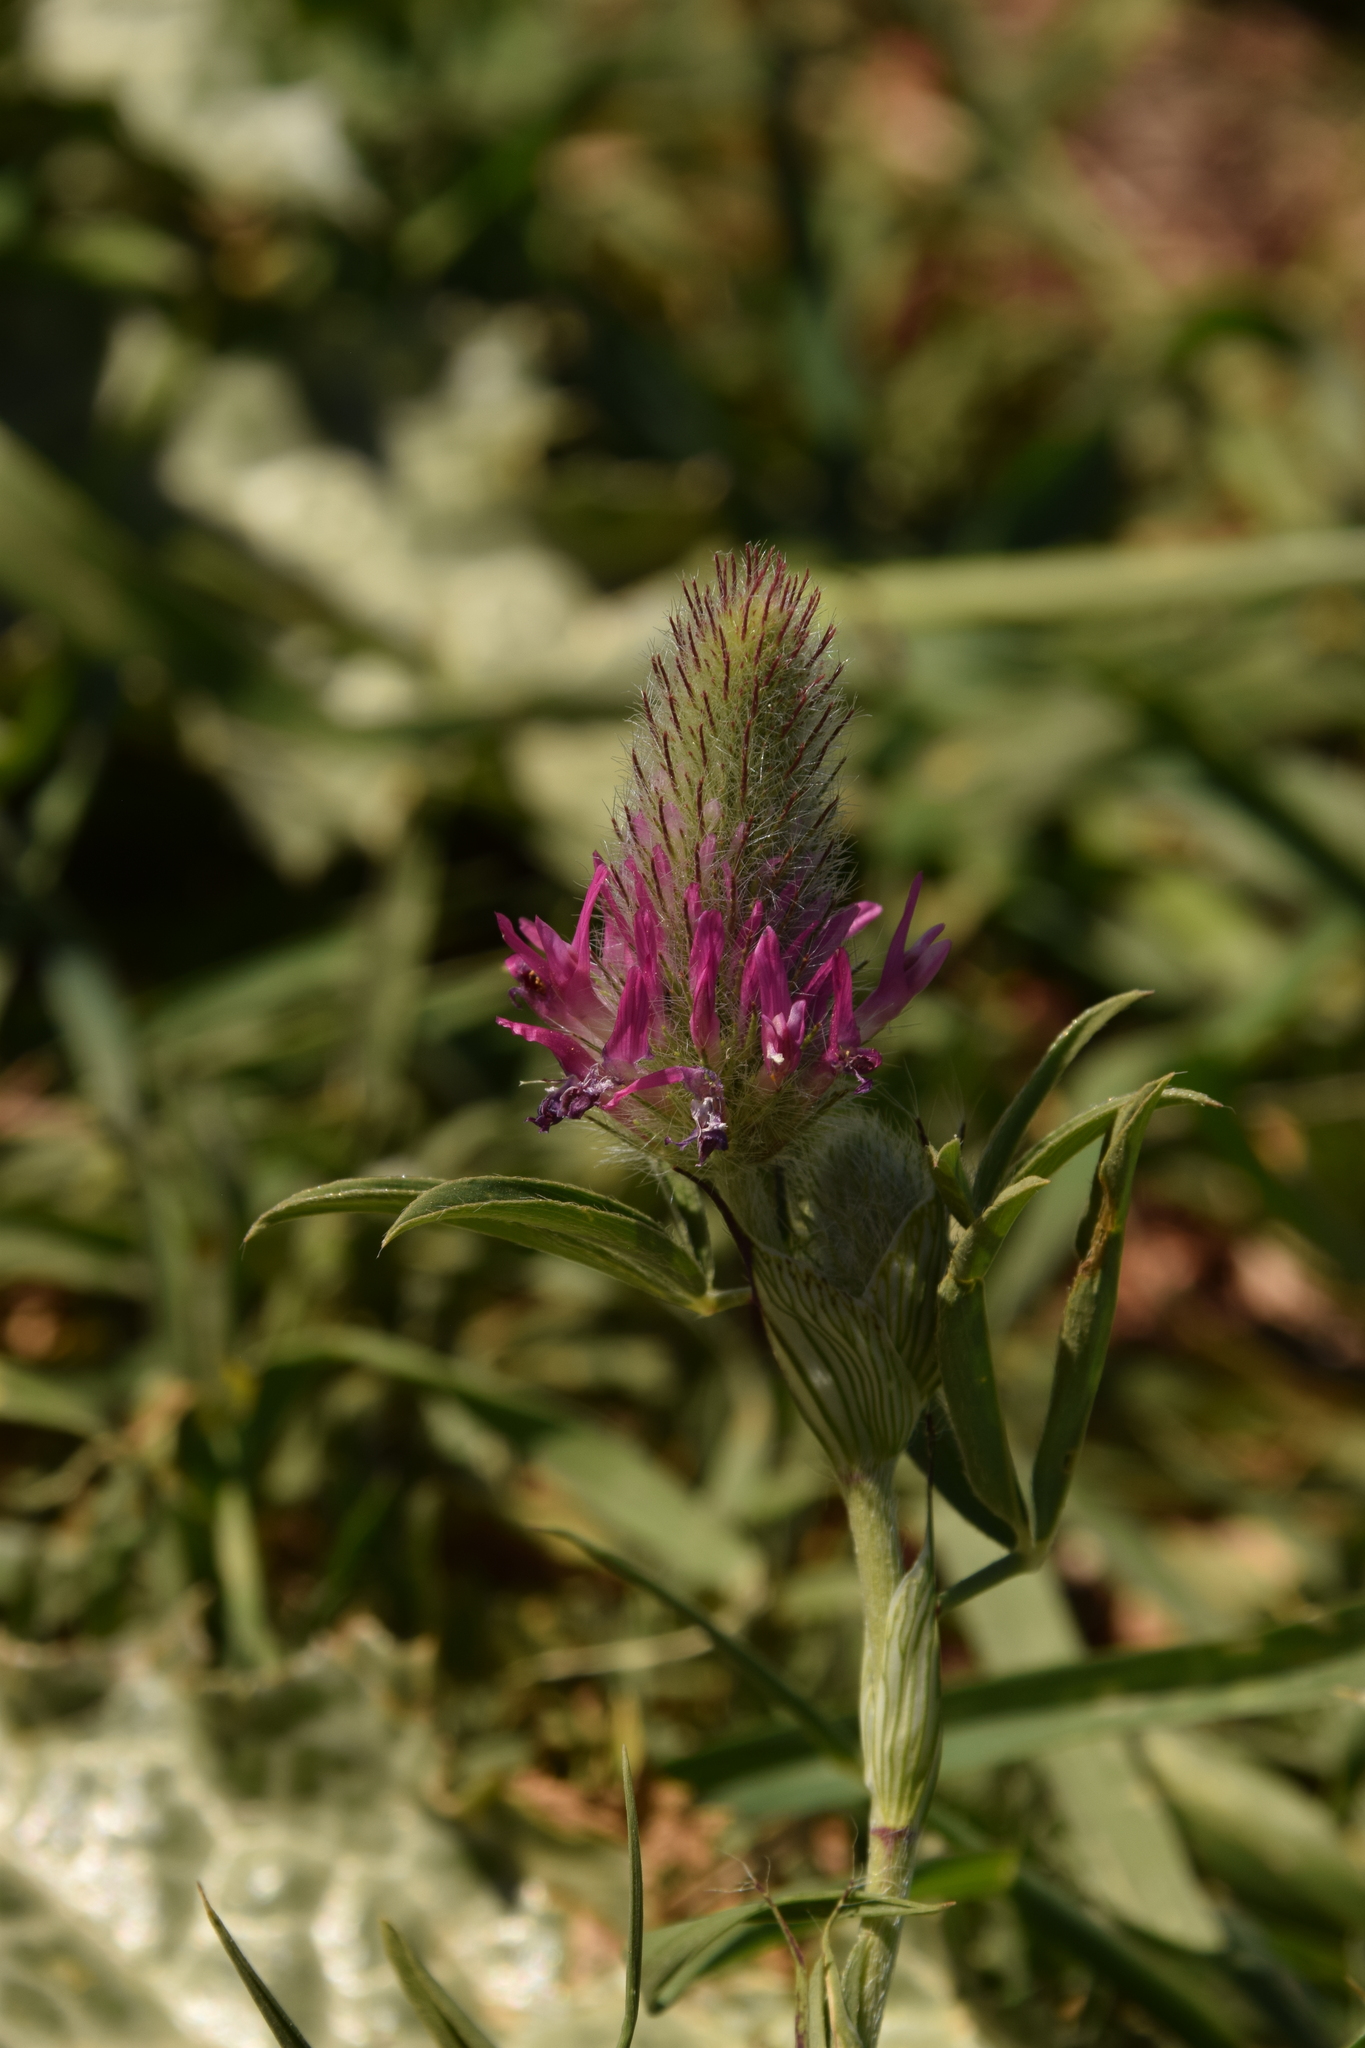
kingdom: Plantae
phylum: Tracheophyta
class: Magnoliopsida
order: Fabales
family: Fabaceae
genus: Trifolium
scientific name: Trifolium purpureum
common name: Purple clover
